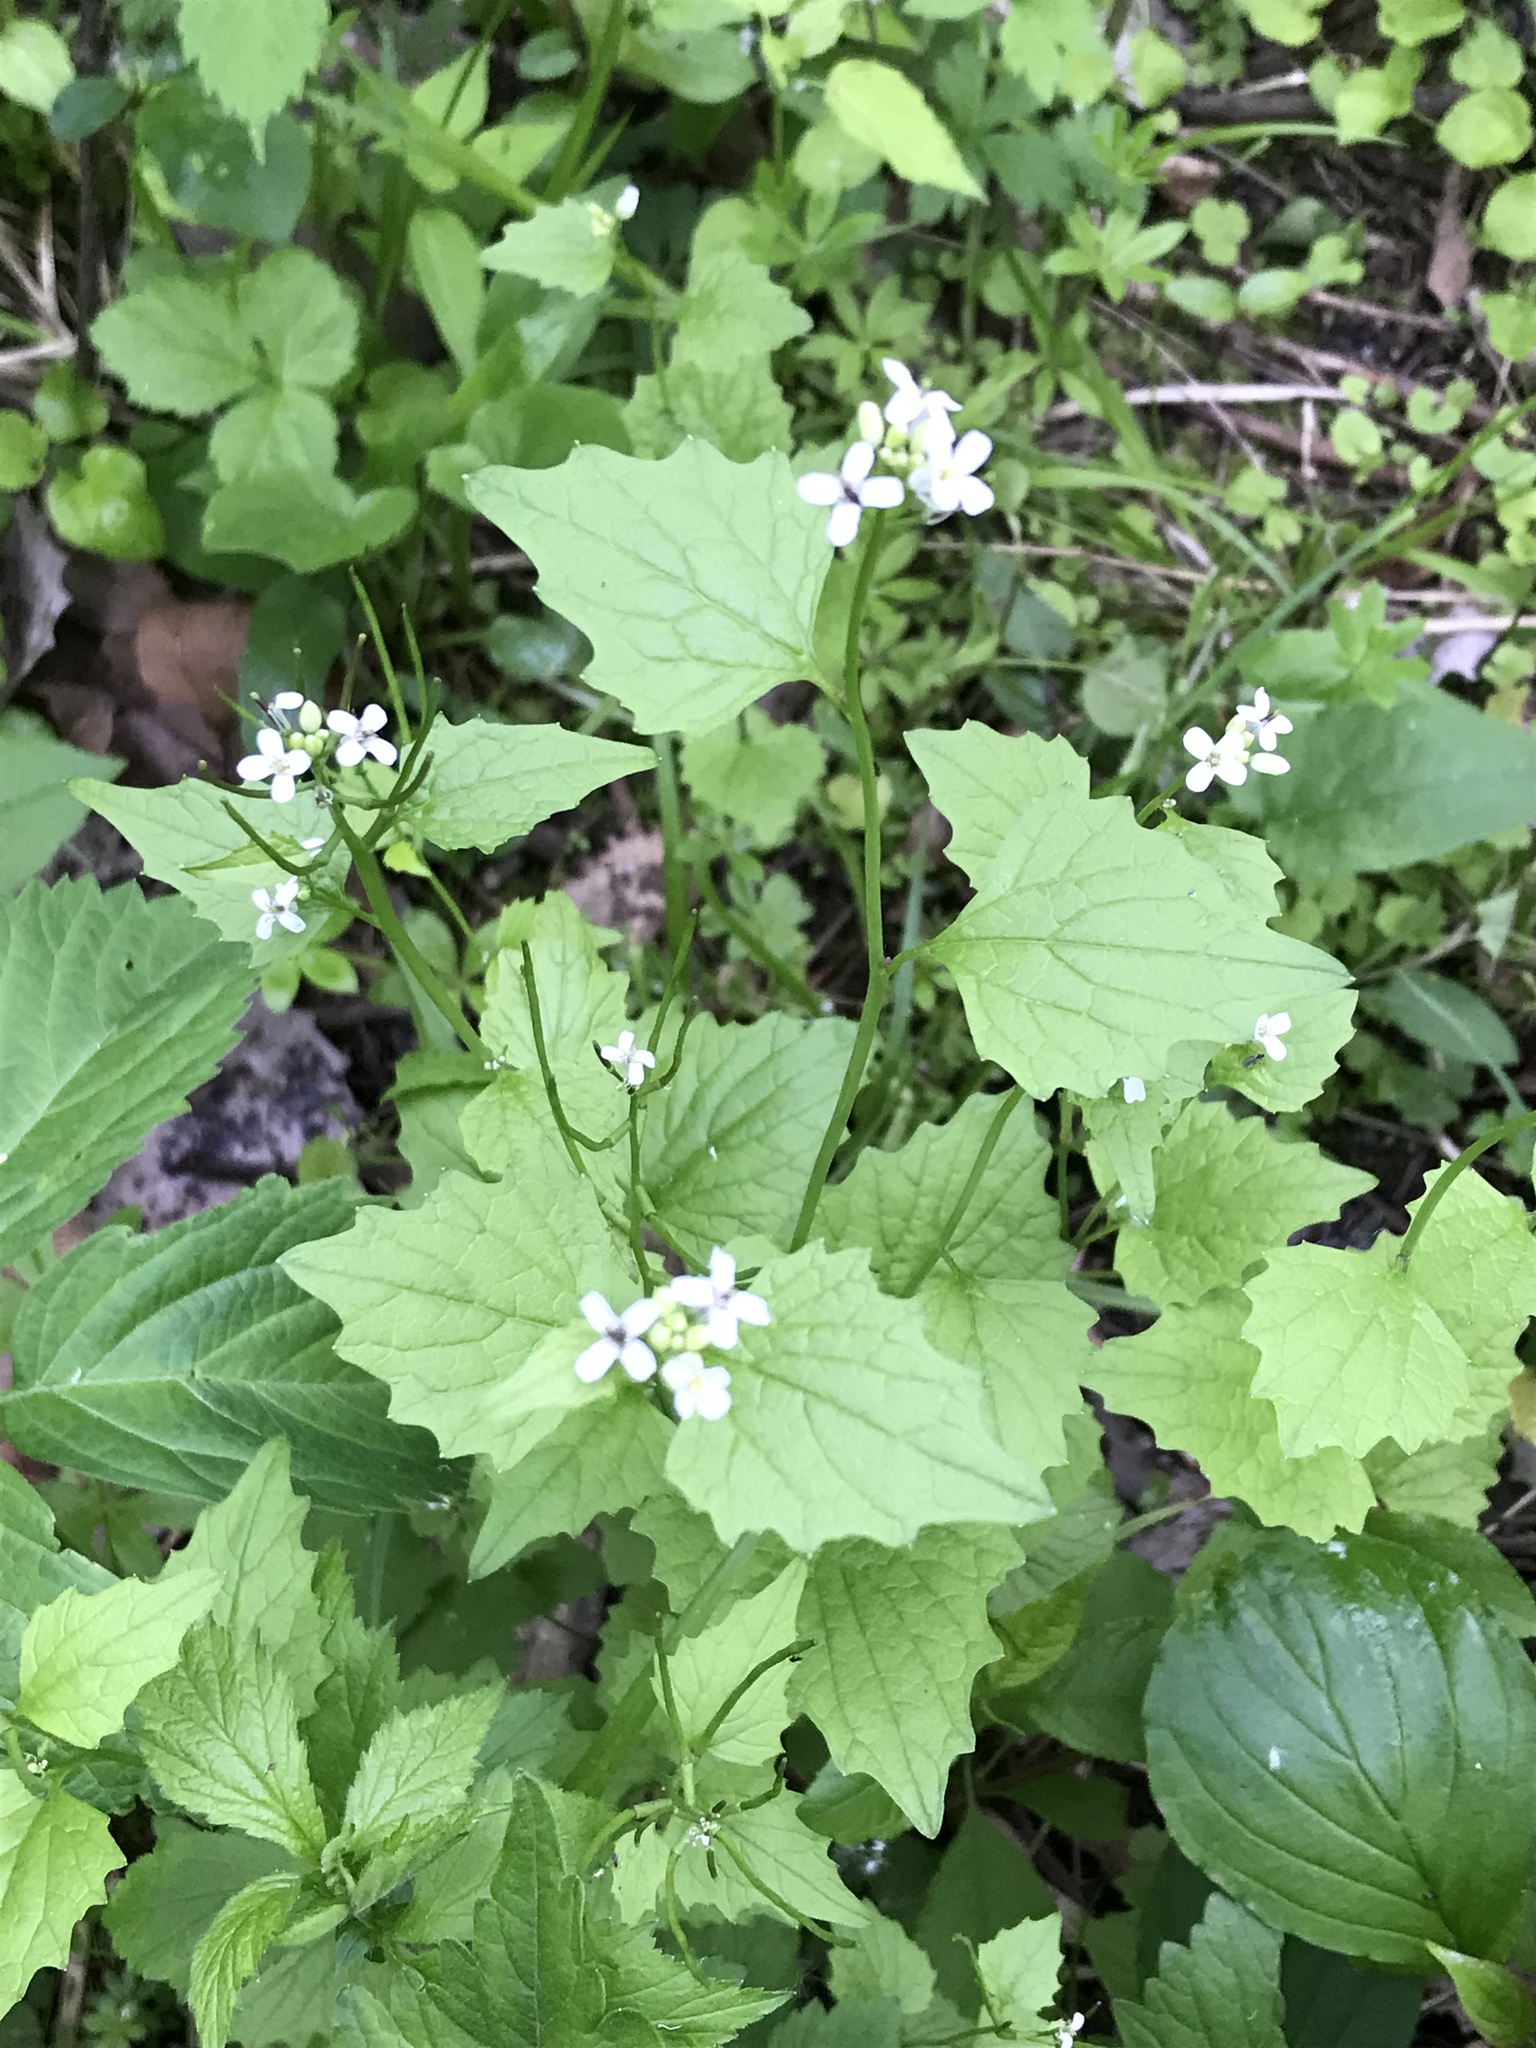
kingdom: Plantae
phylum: Tracheophyta
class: Magnoliopsida
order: Brassicales
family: Brassicaceae
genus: Alliaria
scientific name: Alliaria petiolata
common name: Garlic mustard
